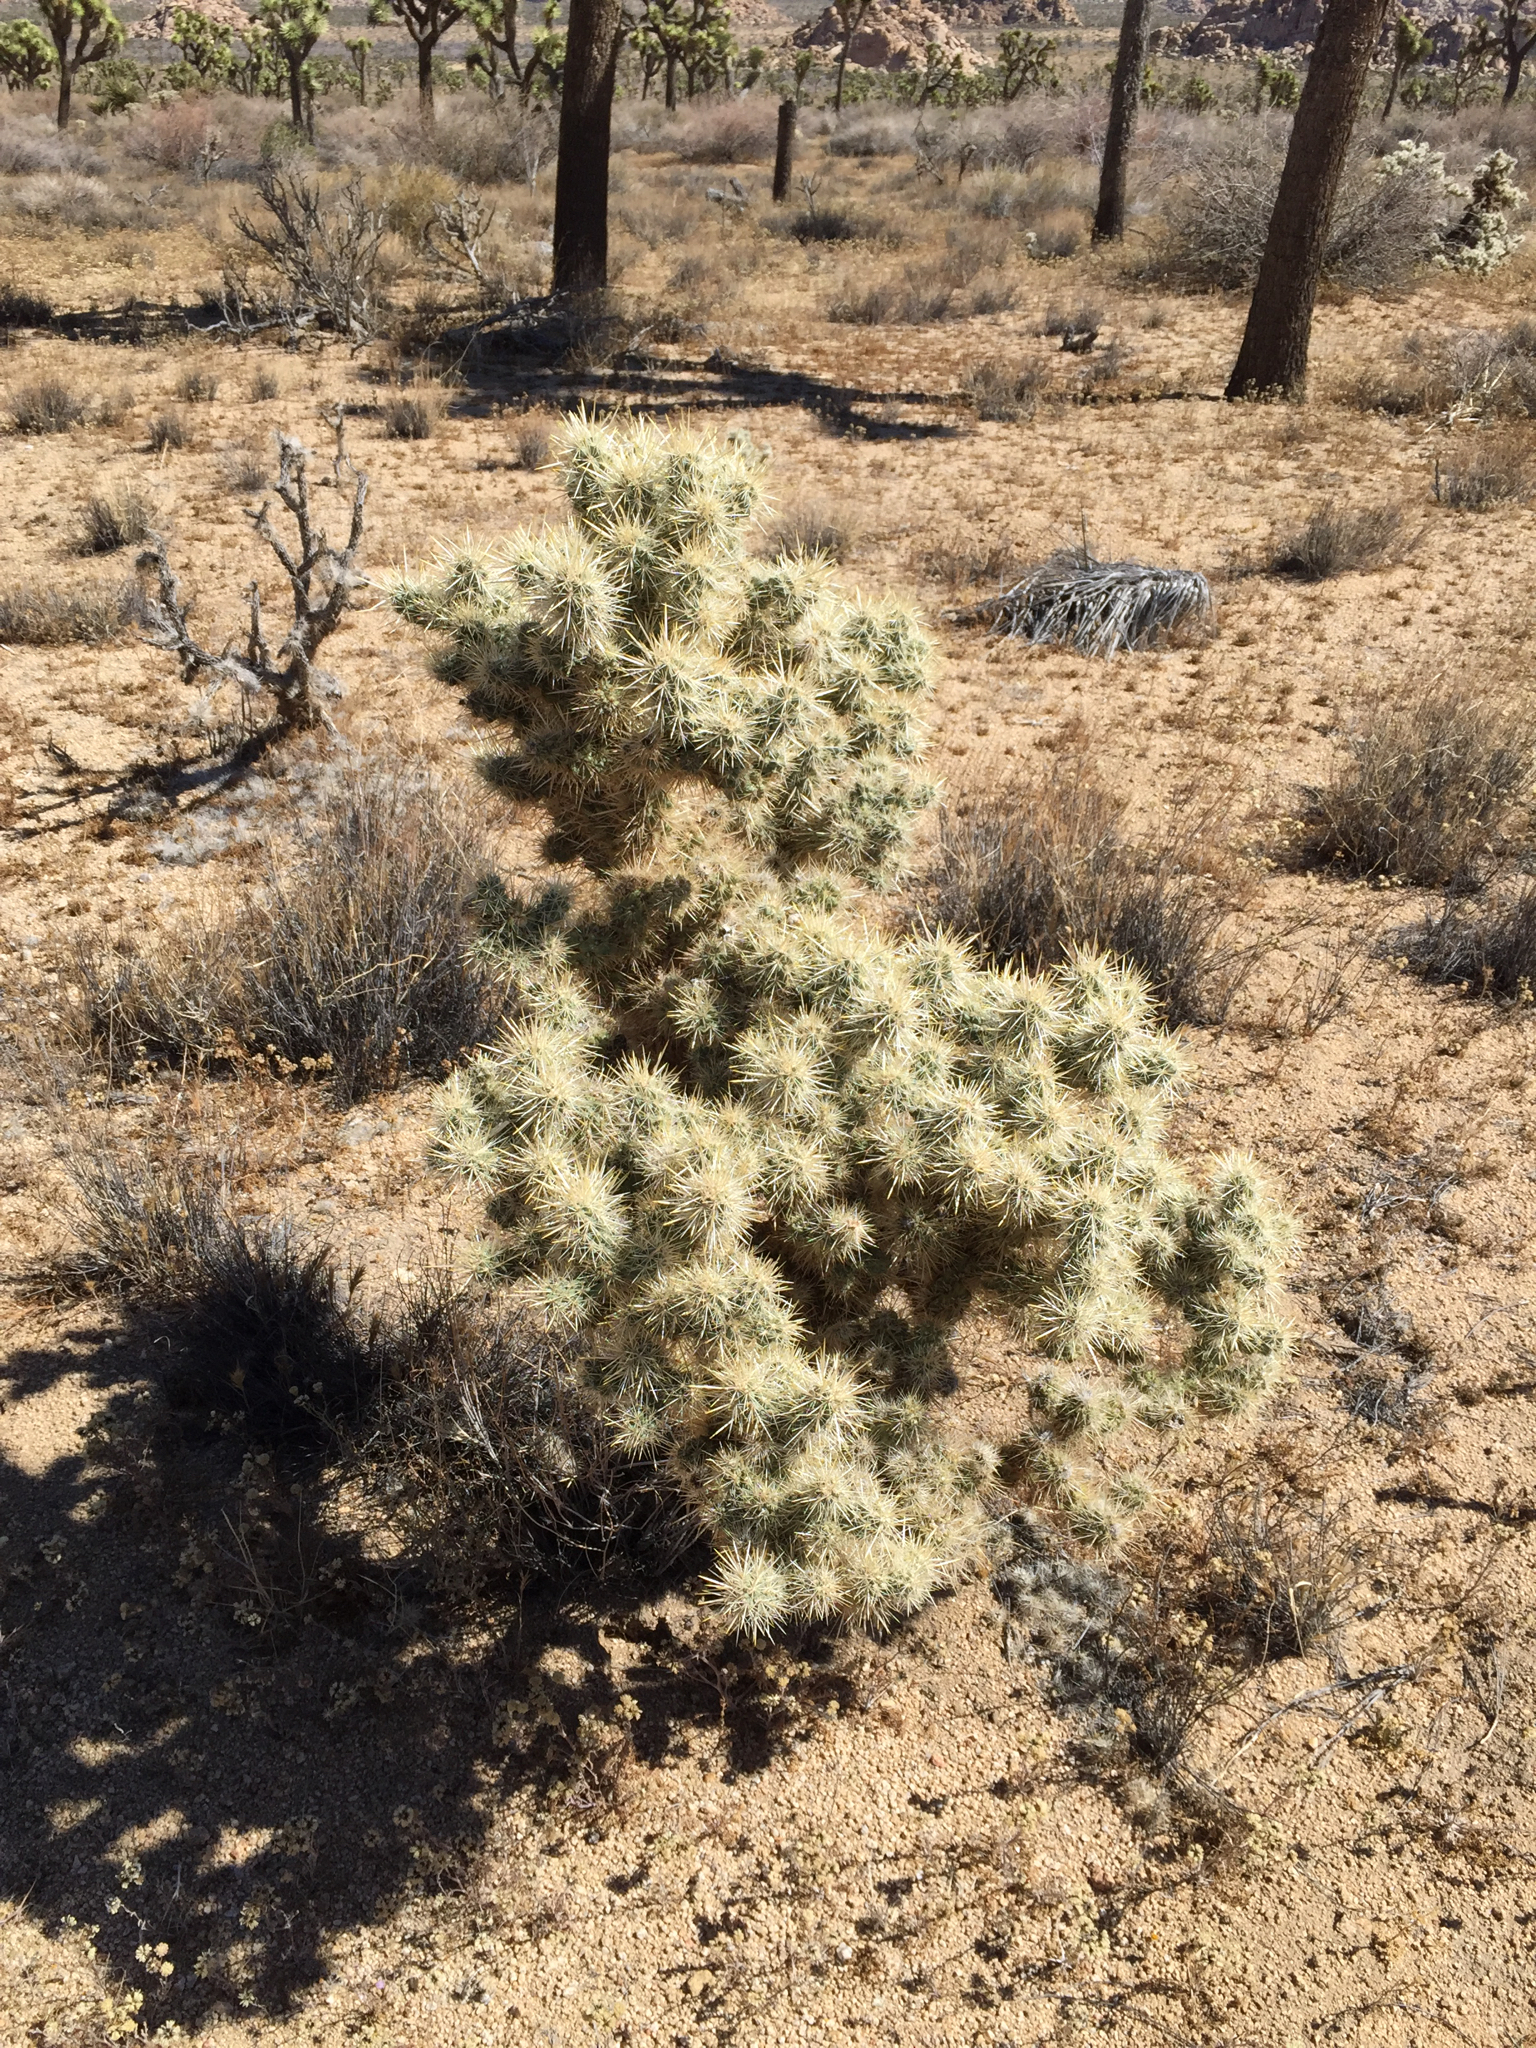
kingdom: Plantae
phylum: Tracheophyta
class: Magnoliopsida
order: Caryophyllales
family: Cactaceae
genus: Cylindropuntia
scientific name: Cylindropuntia echinocarpa
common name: Ground cholla
